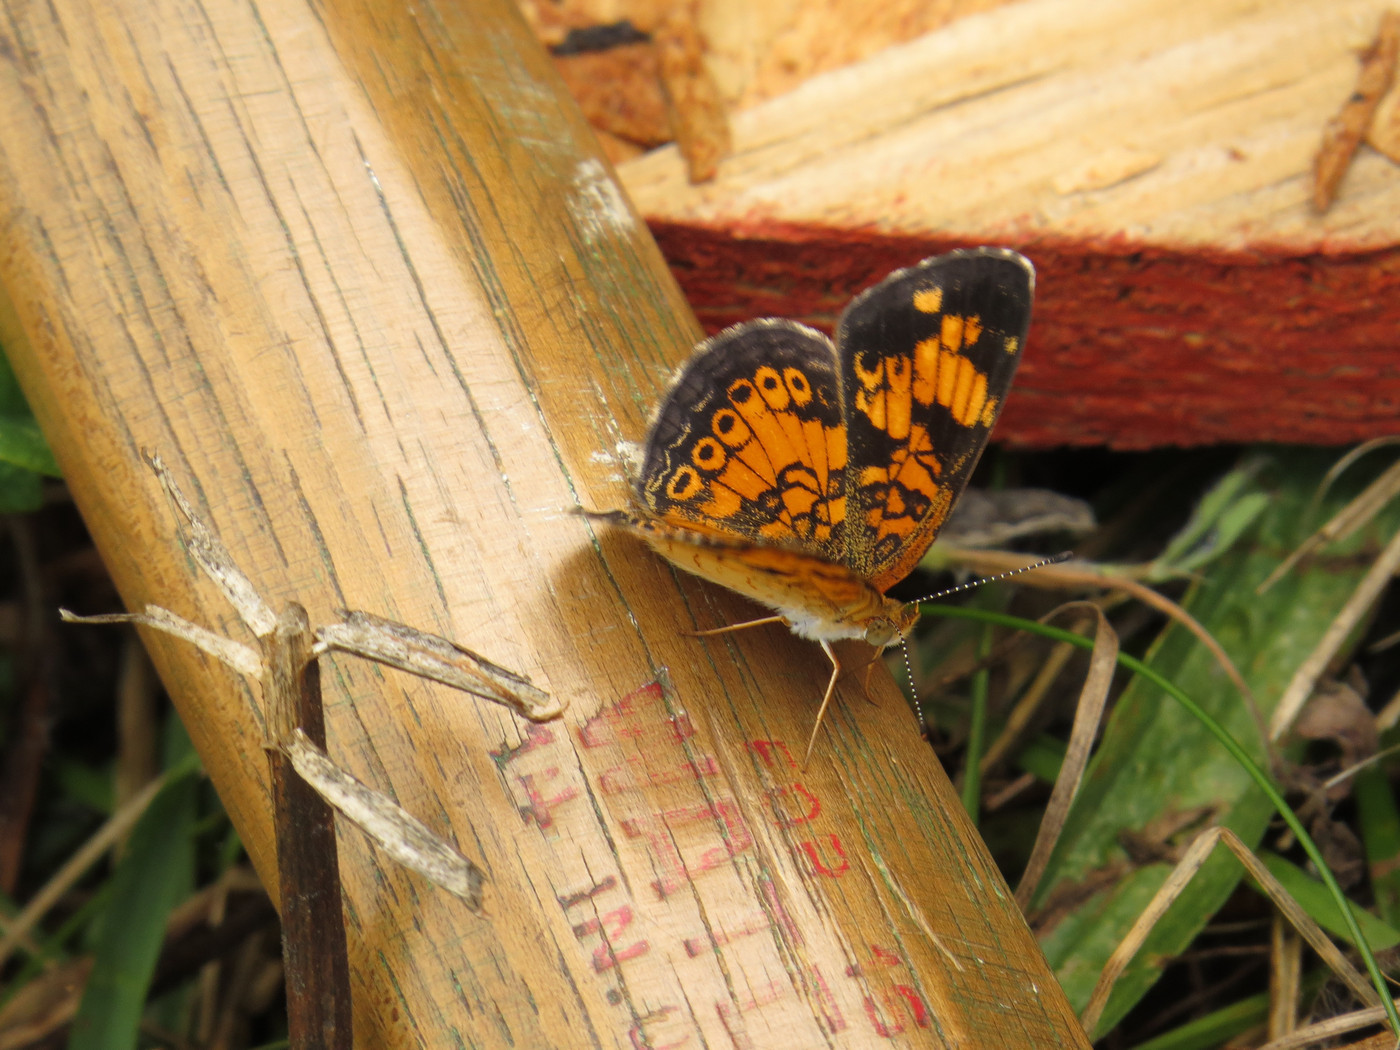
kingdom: Animalia
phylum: Arthropoda
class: Insecta
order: Lepidoptera
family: Nymphalidae
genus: Phyciodes
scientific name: Phyciodes tharos
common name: Pearl crescent
